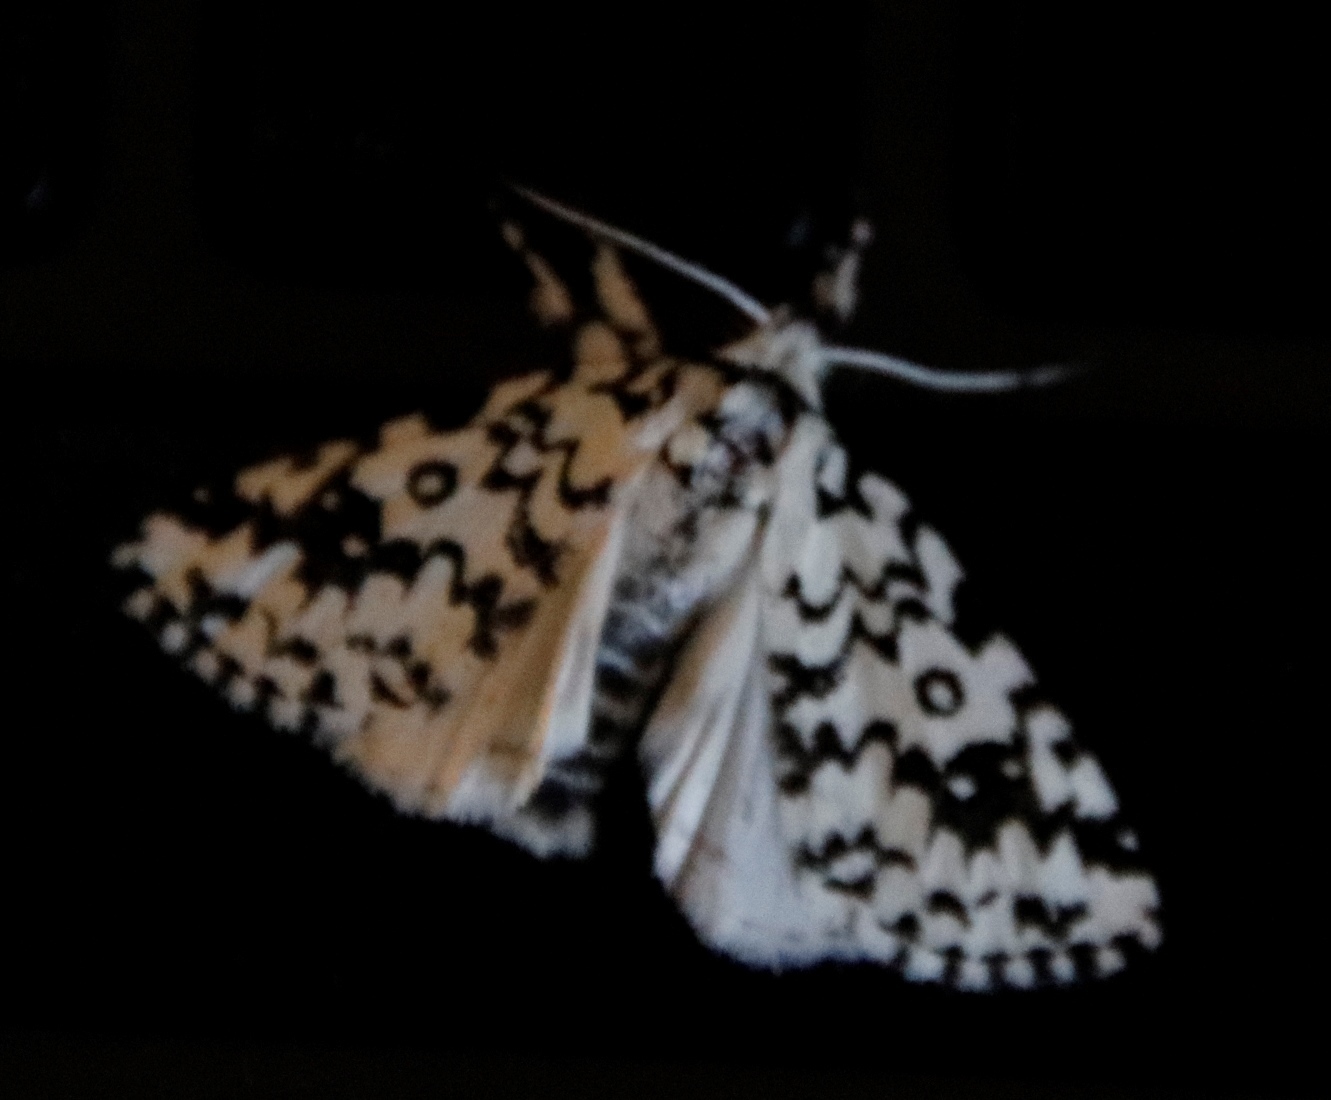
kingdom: Animalia
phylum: Arthropoda
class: Insecta
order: Lepidoptera
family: Erebidae
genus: Dasychira
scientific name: Dasychira octophora
